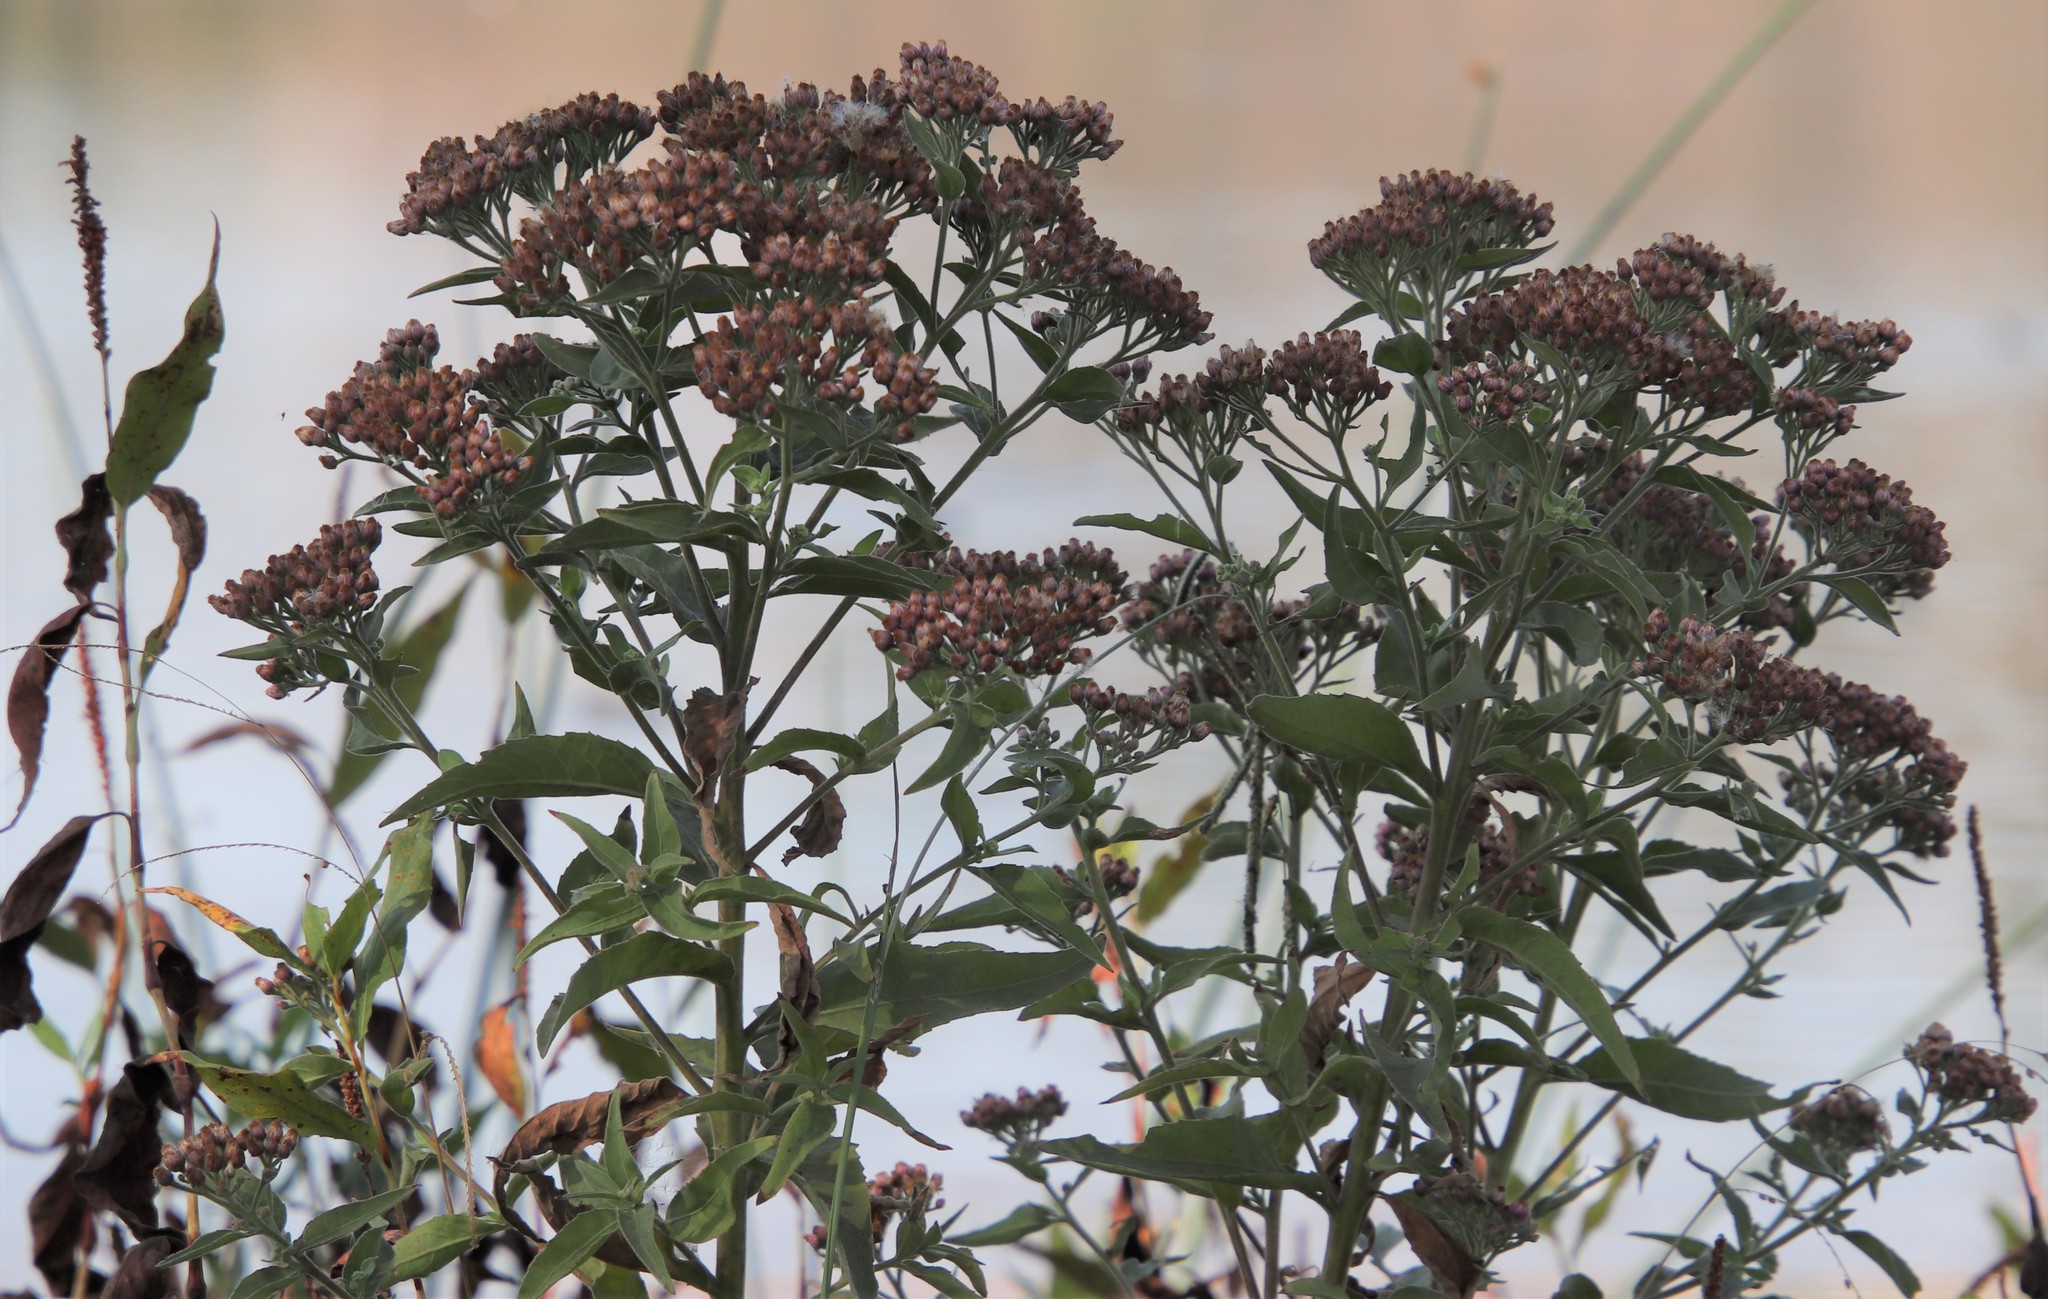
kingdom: Plantae
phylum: Tracheophyta
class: Magnoliopsida
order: Asterales
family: Asteraceae
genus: Pluchea
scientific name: Pluchea odorata
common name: Saltmarsh fleabane
